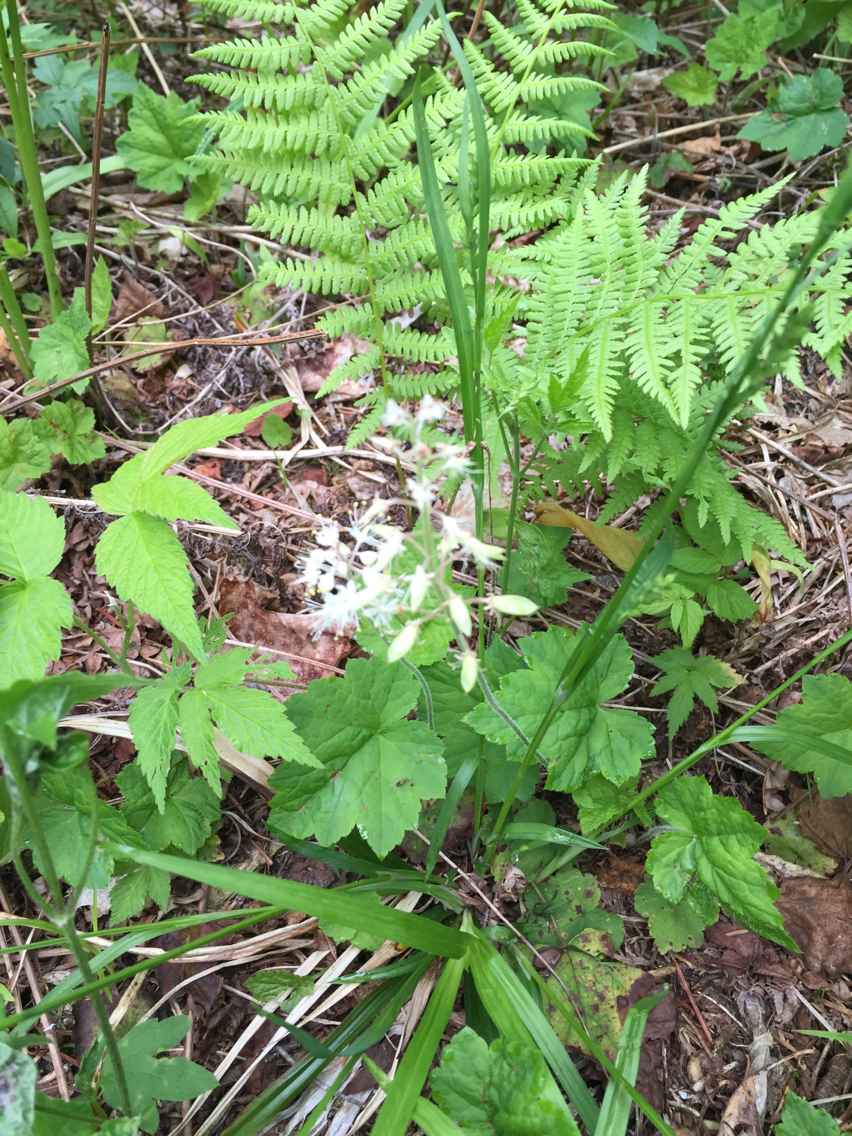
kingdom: Plantae
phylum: Tracheophyta
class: Magnoliopsida
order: Saxifragales
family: Saxifragaceae
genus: Tiarella
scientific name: Tiarella stolonifera
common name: Stoloniferous foamflower
